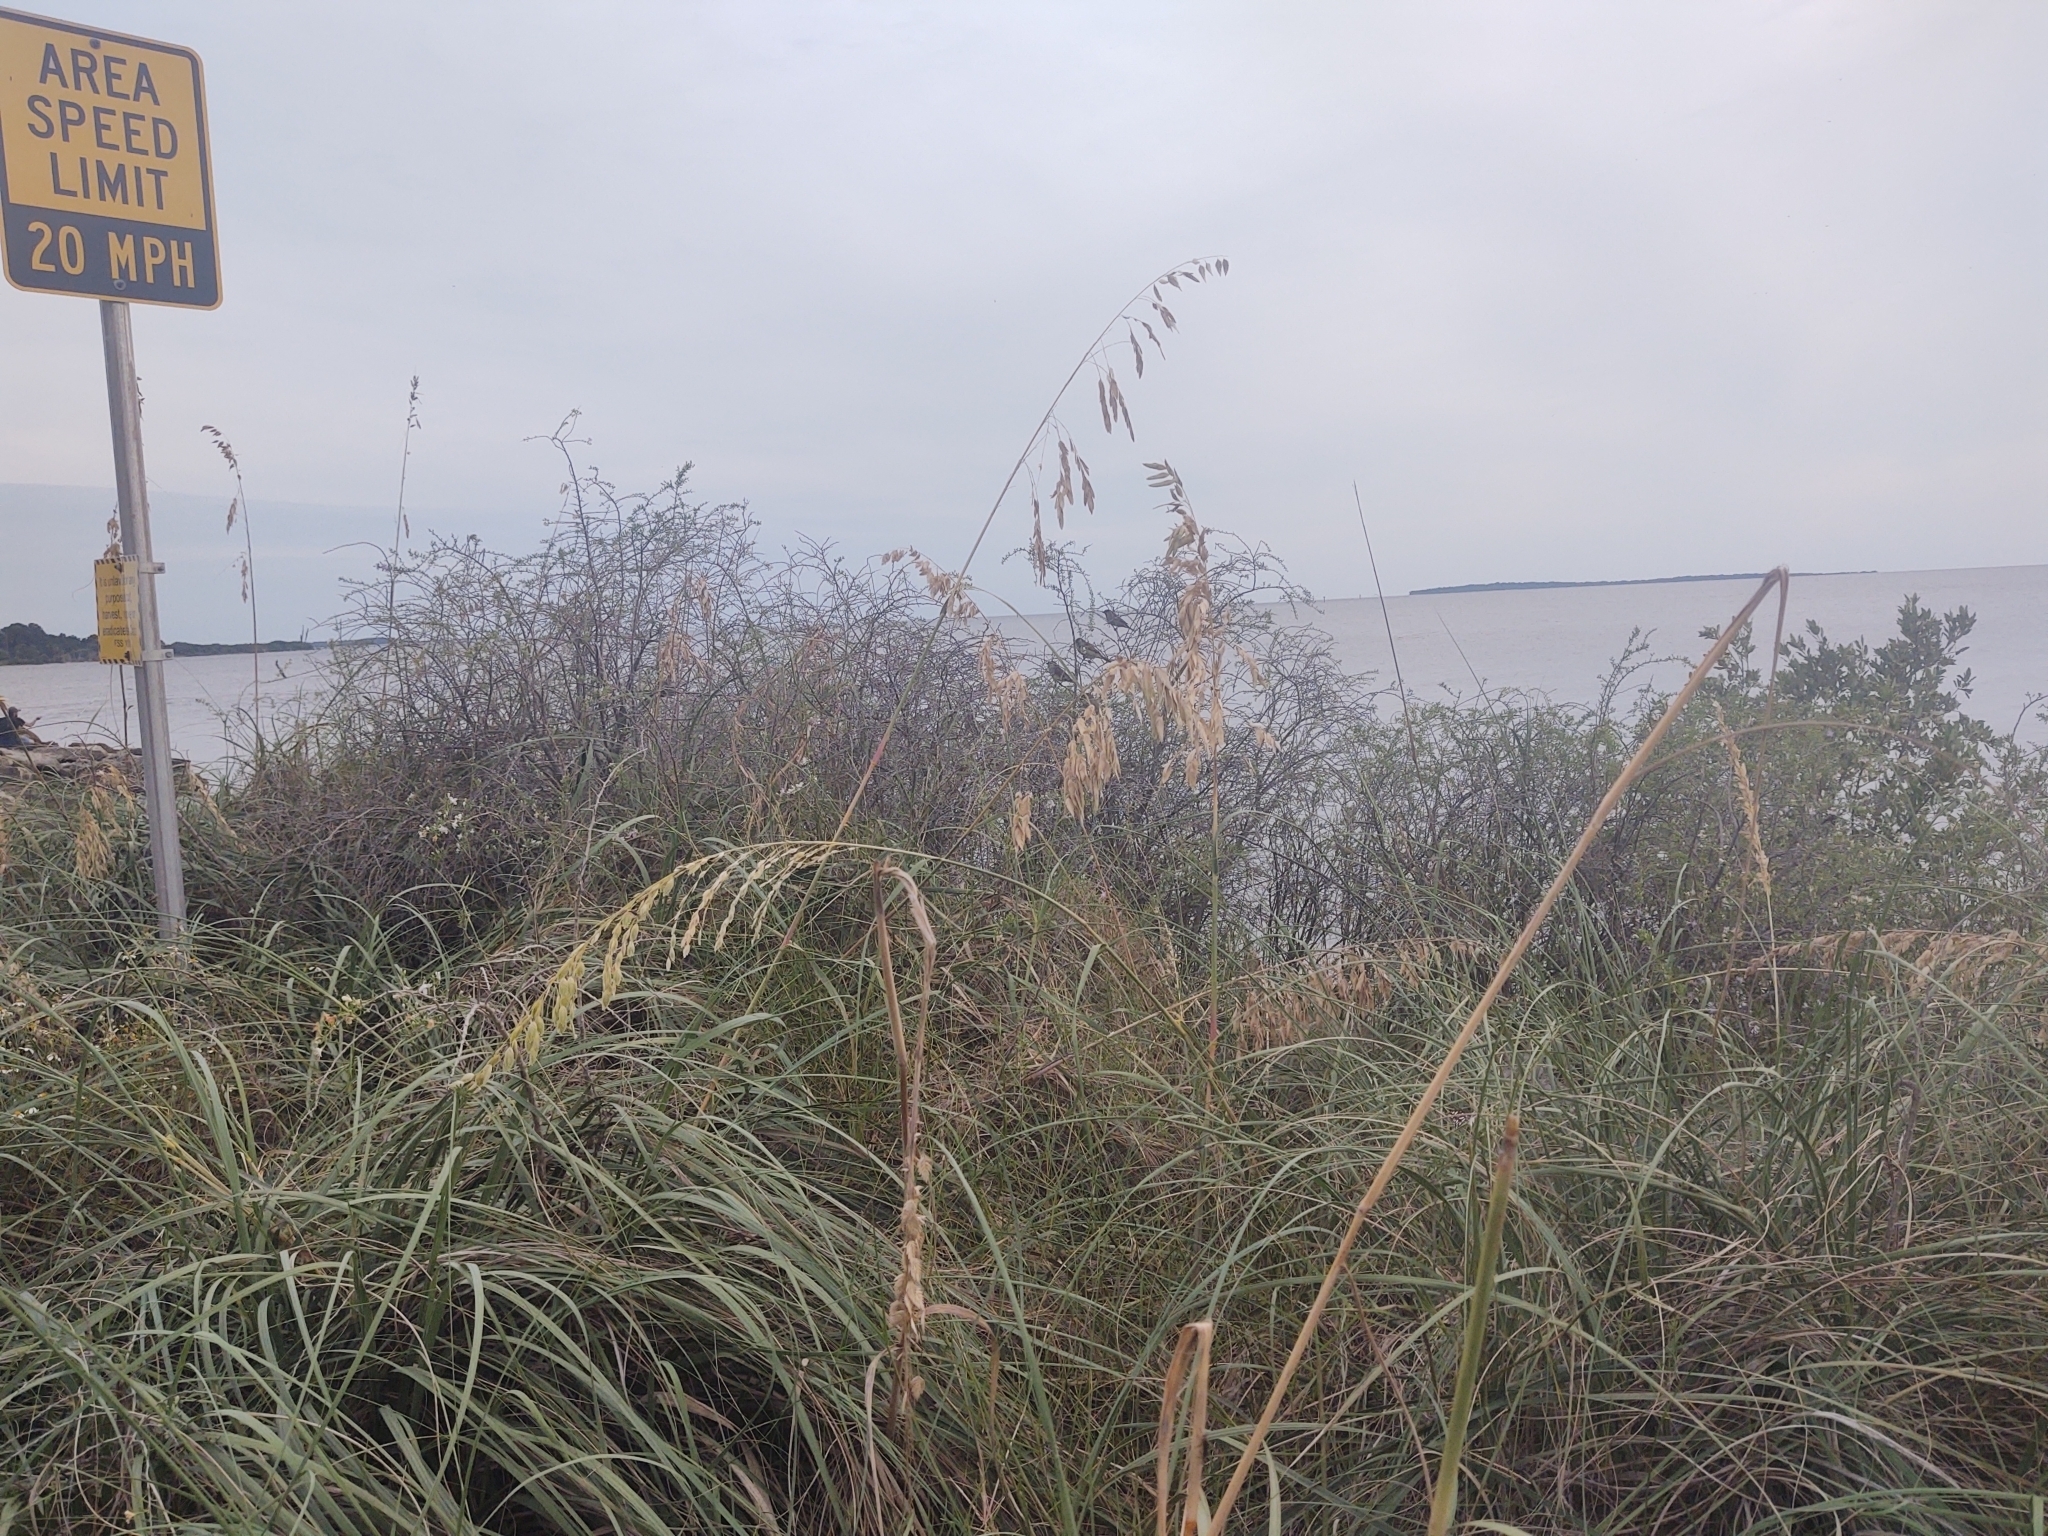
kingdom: Plantae
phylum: Tracheophyta
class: Liliopsida
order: Poales
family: Poaceae
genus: Uniola
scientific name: Uniola paniculata
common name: Seaside-oats
